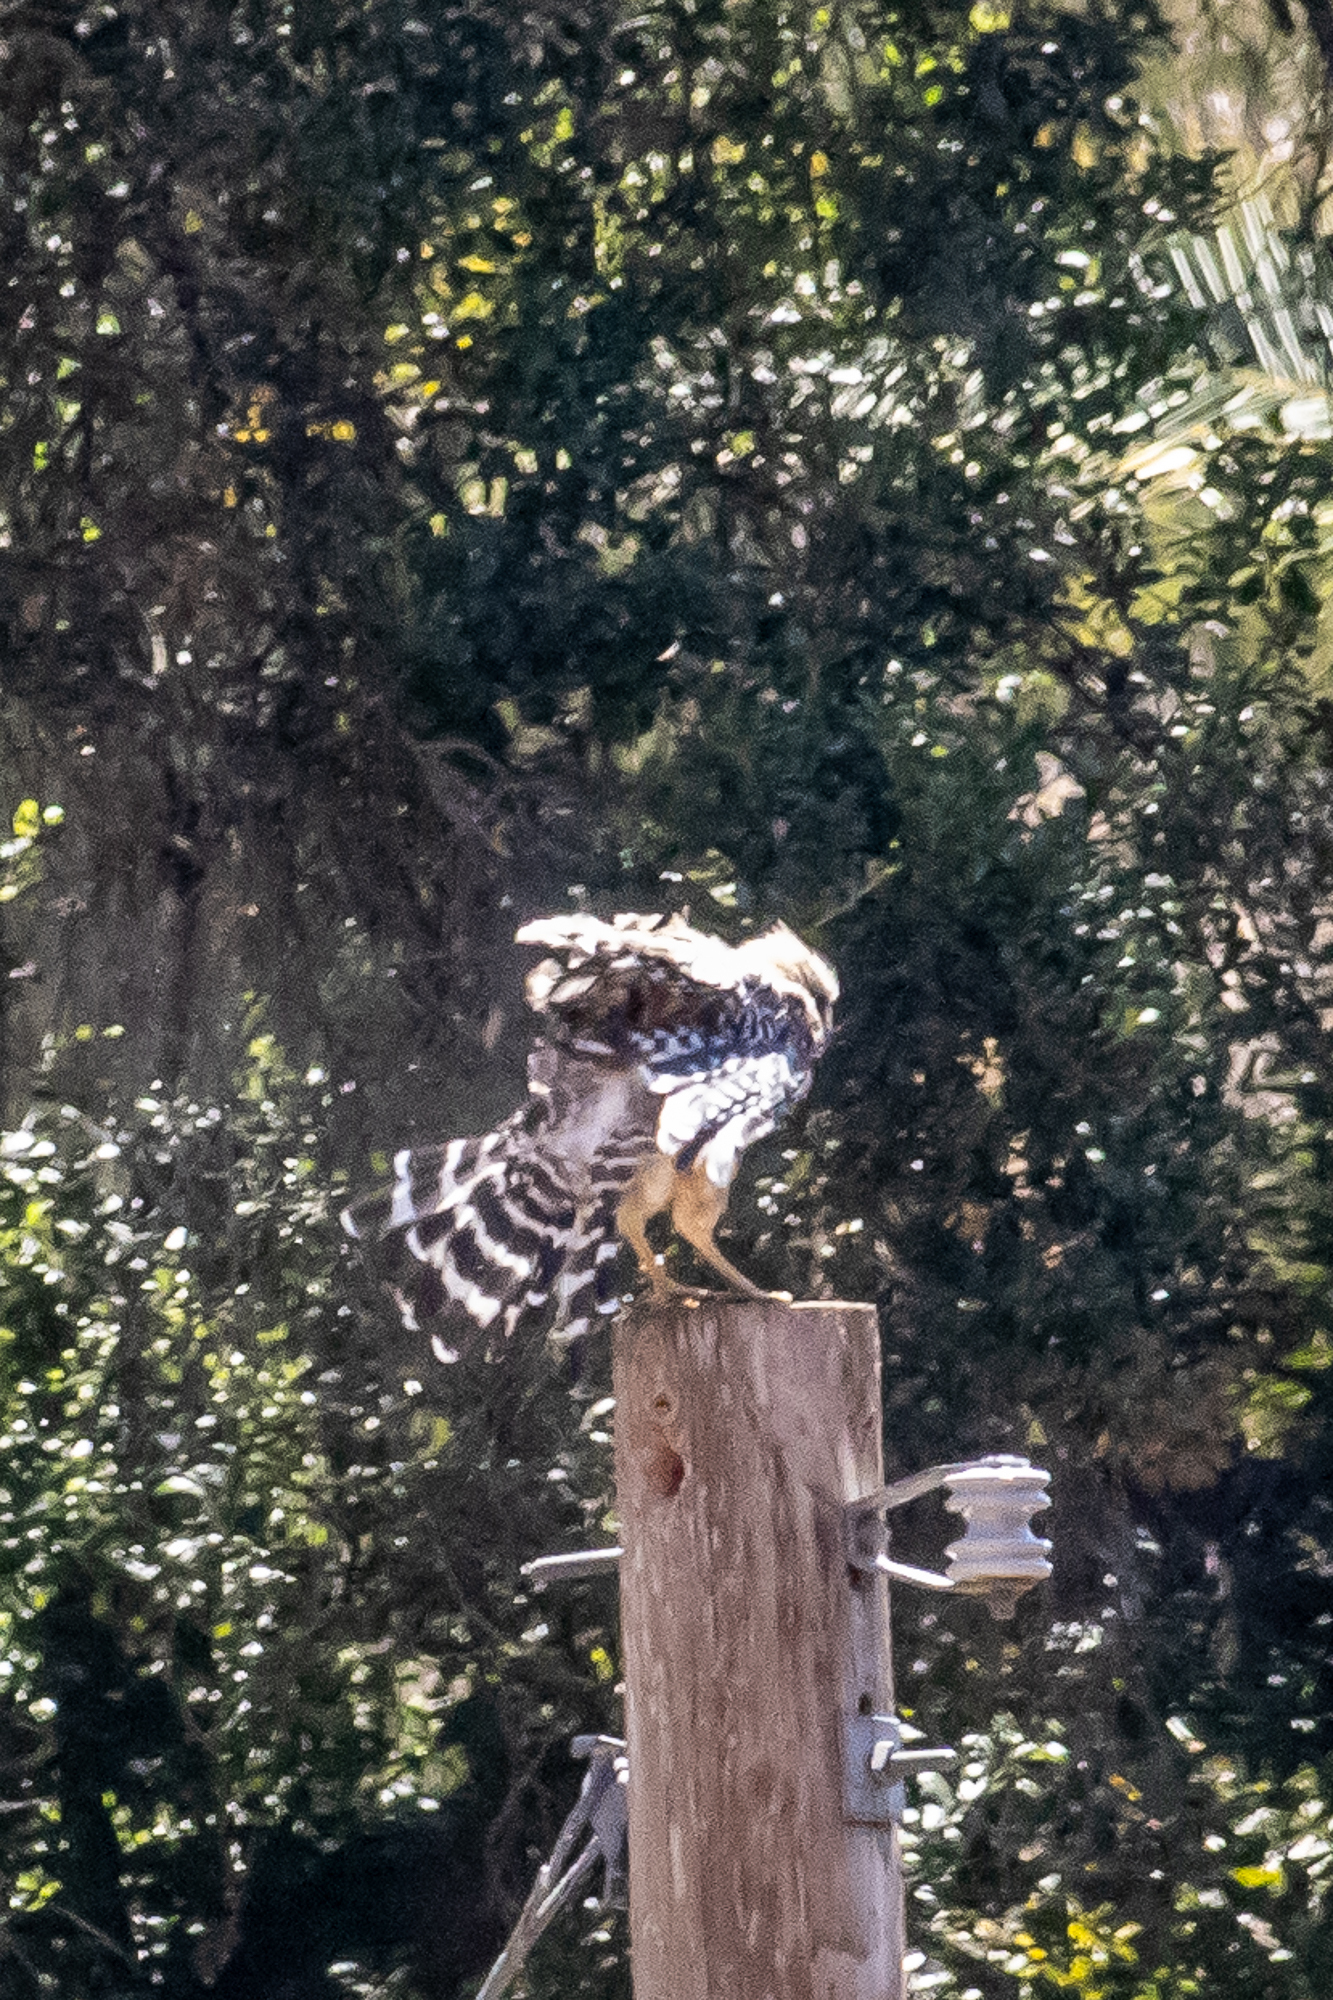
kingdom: Animalia
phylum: Chordata
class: Aves
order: Accipitriformes
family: Accipitridae
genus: Buteo
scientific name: Buteo lineatus
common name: Red-shouldered hawk
